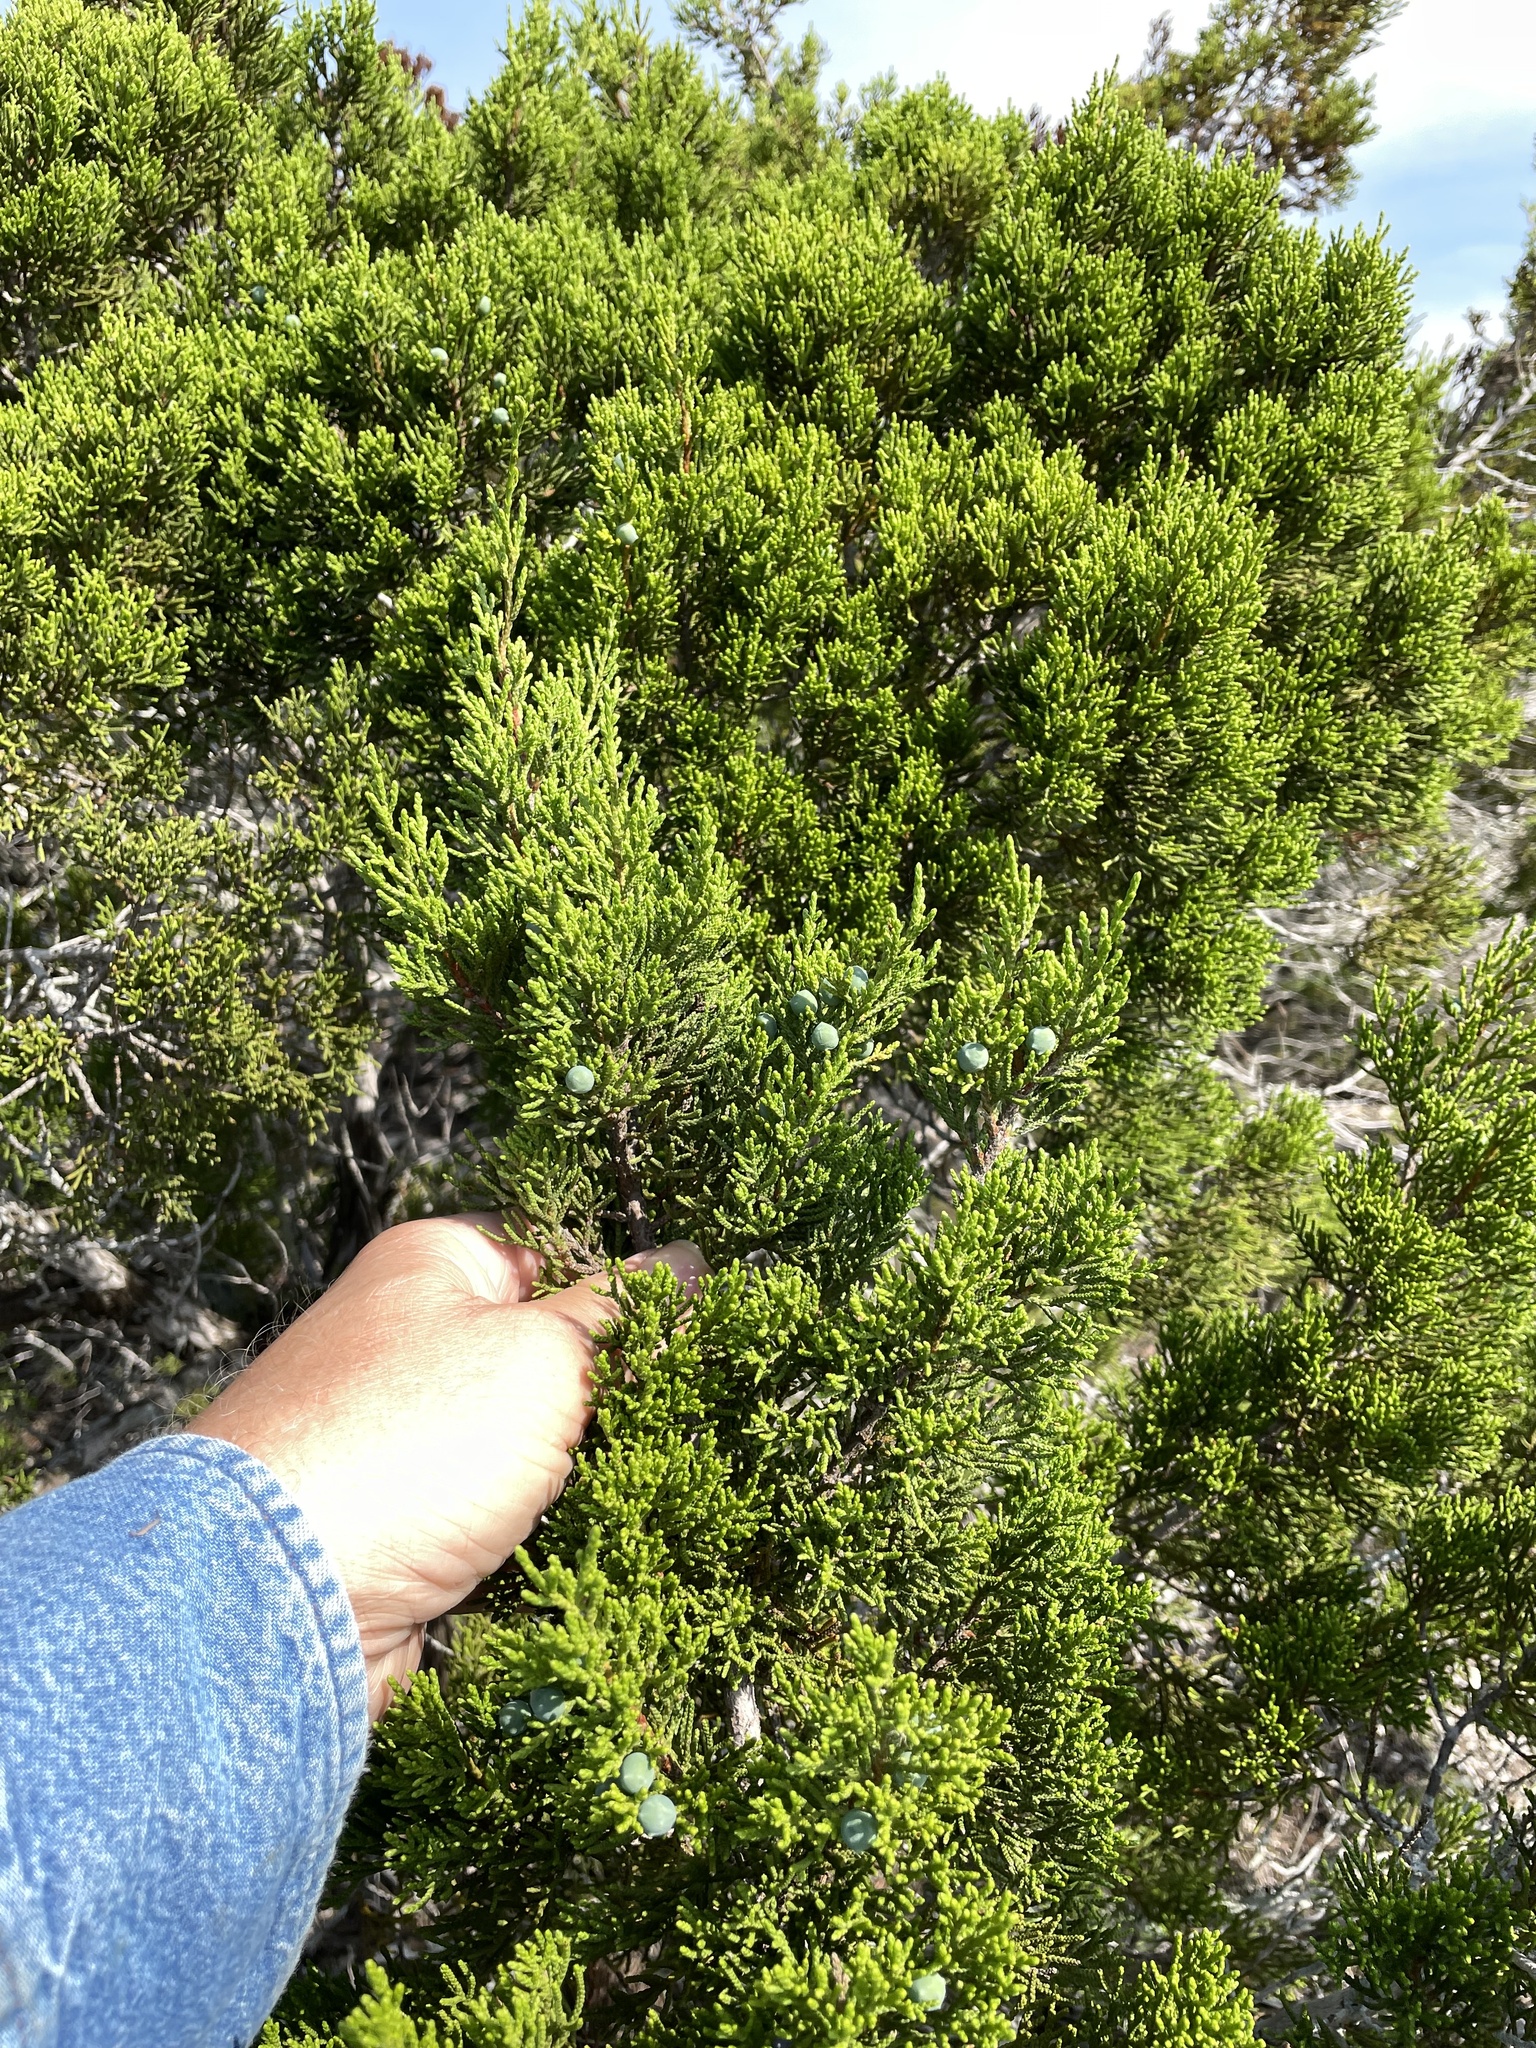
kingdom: Plantae
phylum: Tracheophyta
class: Pinopsida
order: Pinales
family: Cupressaceae
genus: Juniperus
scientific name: Juniperus ashei
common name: Mexican juniper
